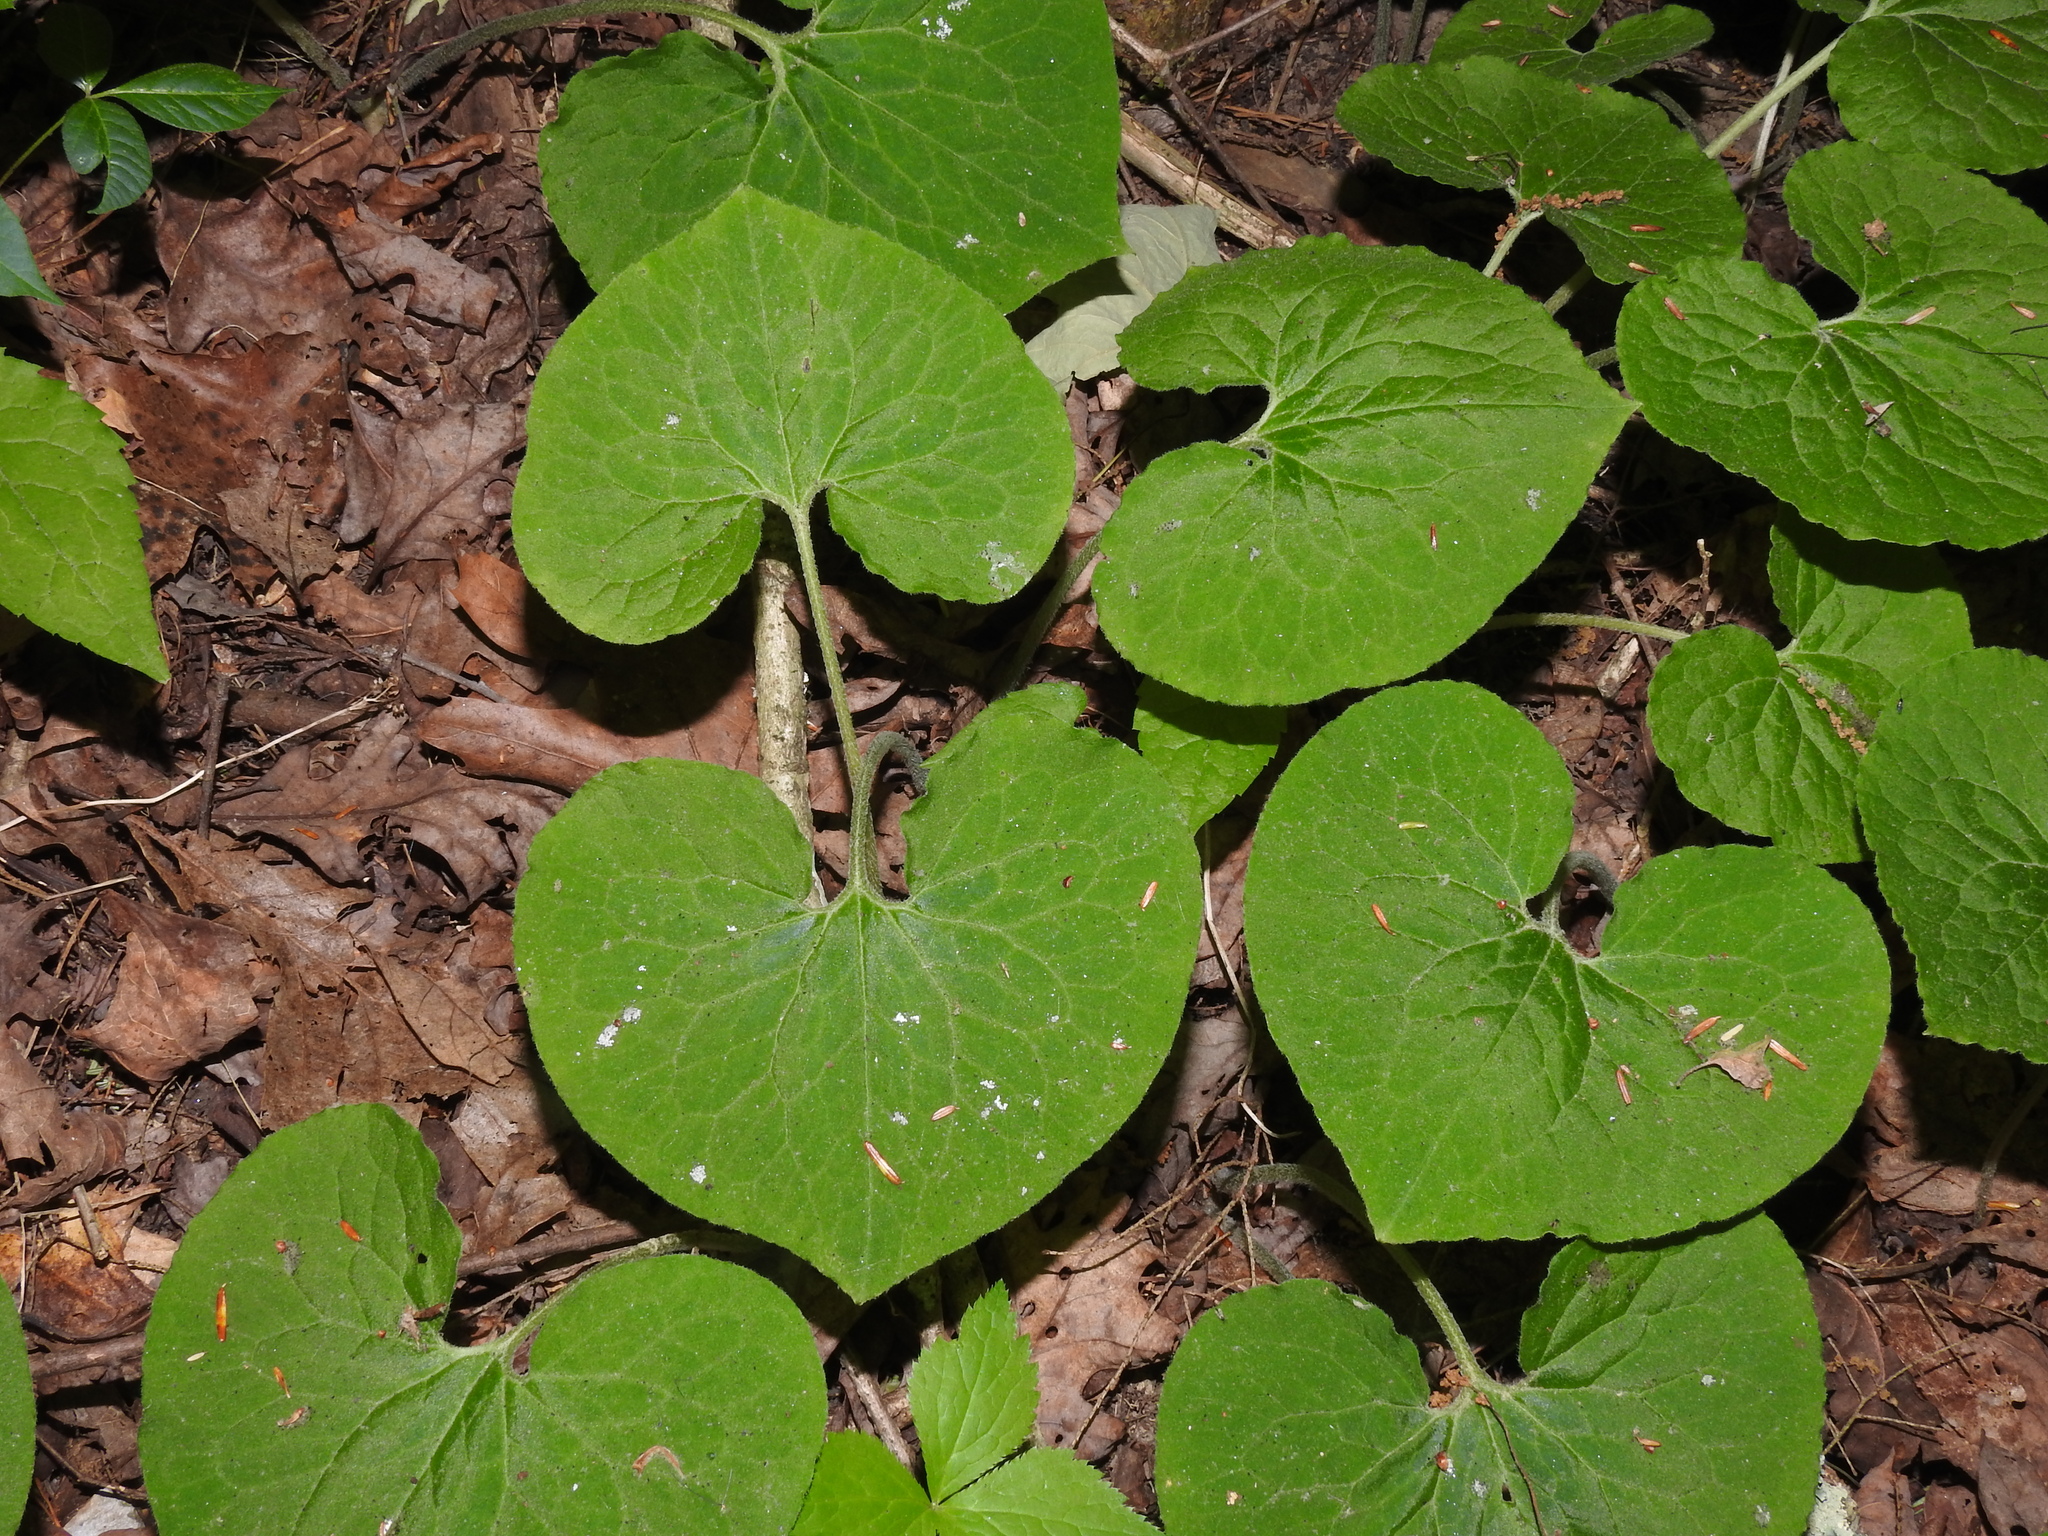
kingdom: Plantae
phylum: Tracheophyta
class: Magnoliopsida
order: Piperales
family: Aristolochiaceae
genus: Asarum
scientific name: Asarum canadense
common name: Wild ginger
